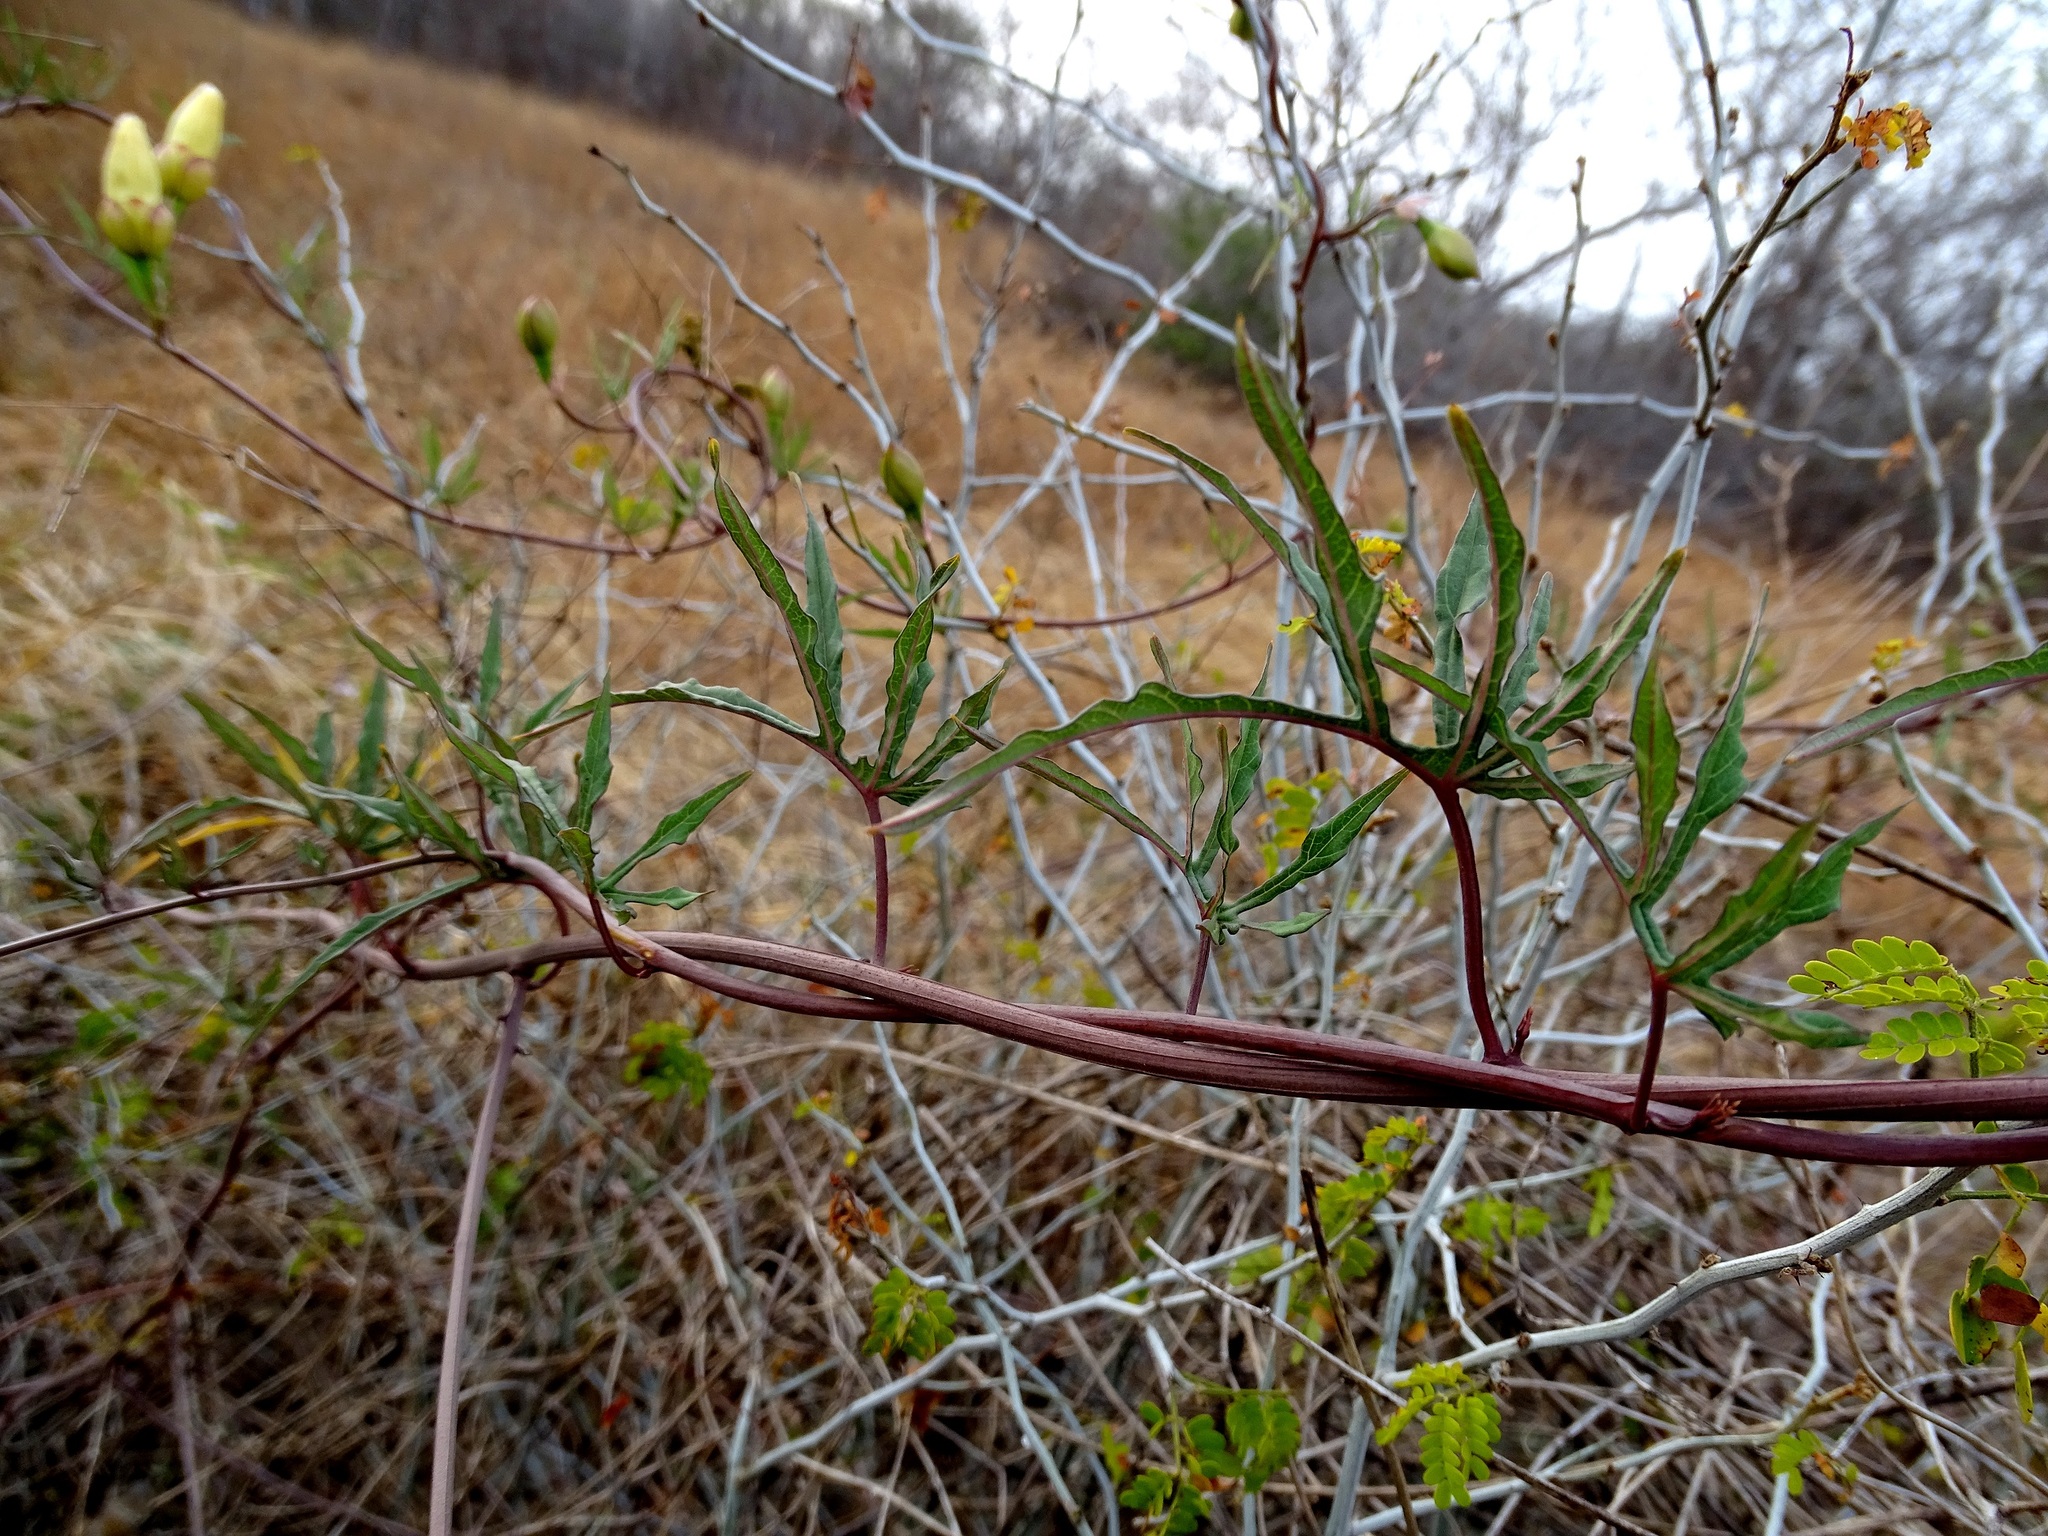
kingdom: Plantae
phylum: Tracheophyta
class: Magnoliopsida
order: Solanales
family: Convolvulaceae
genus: Operculina
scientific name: Operculina pinnatifida
